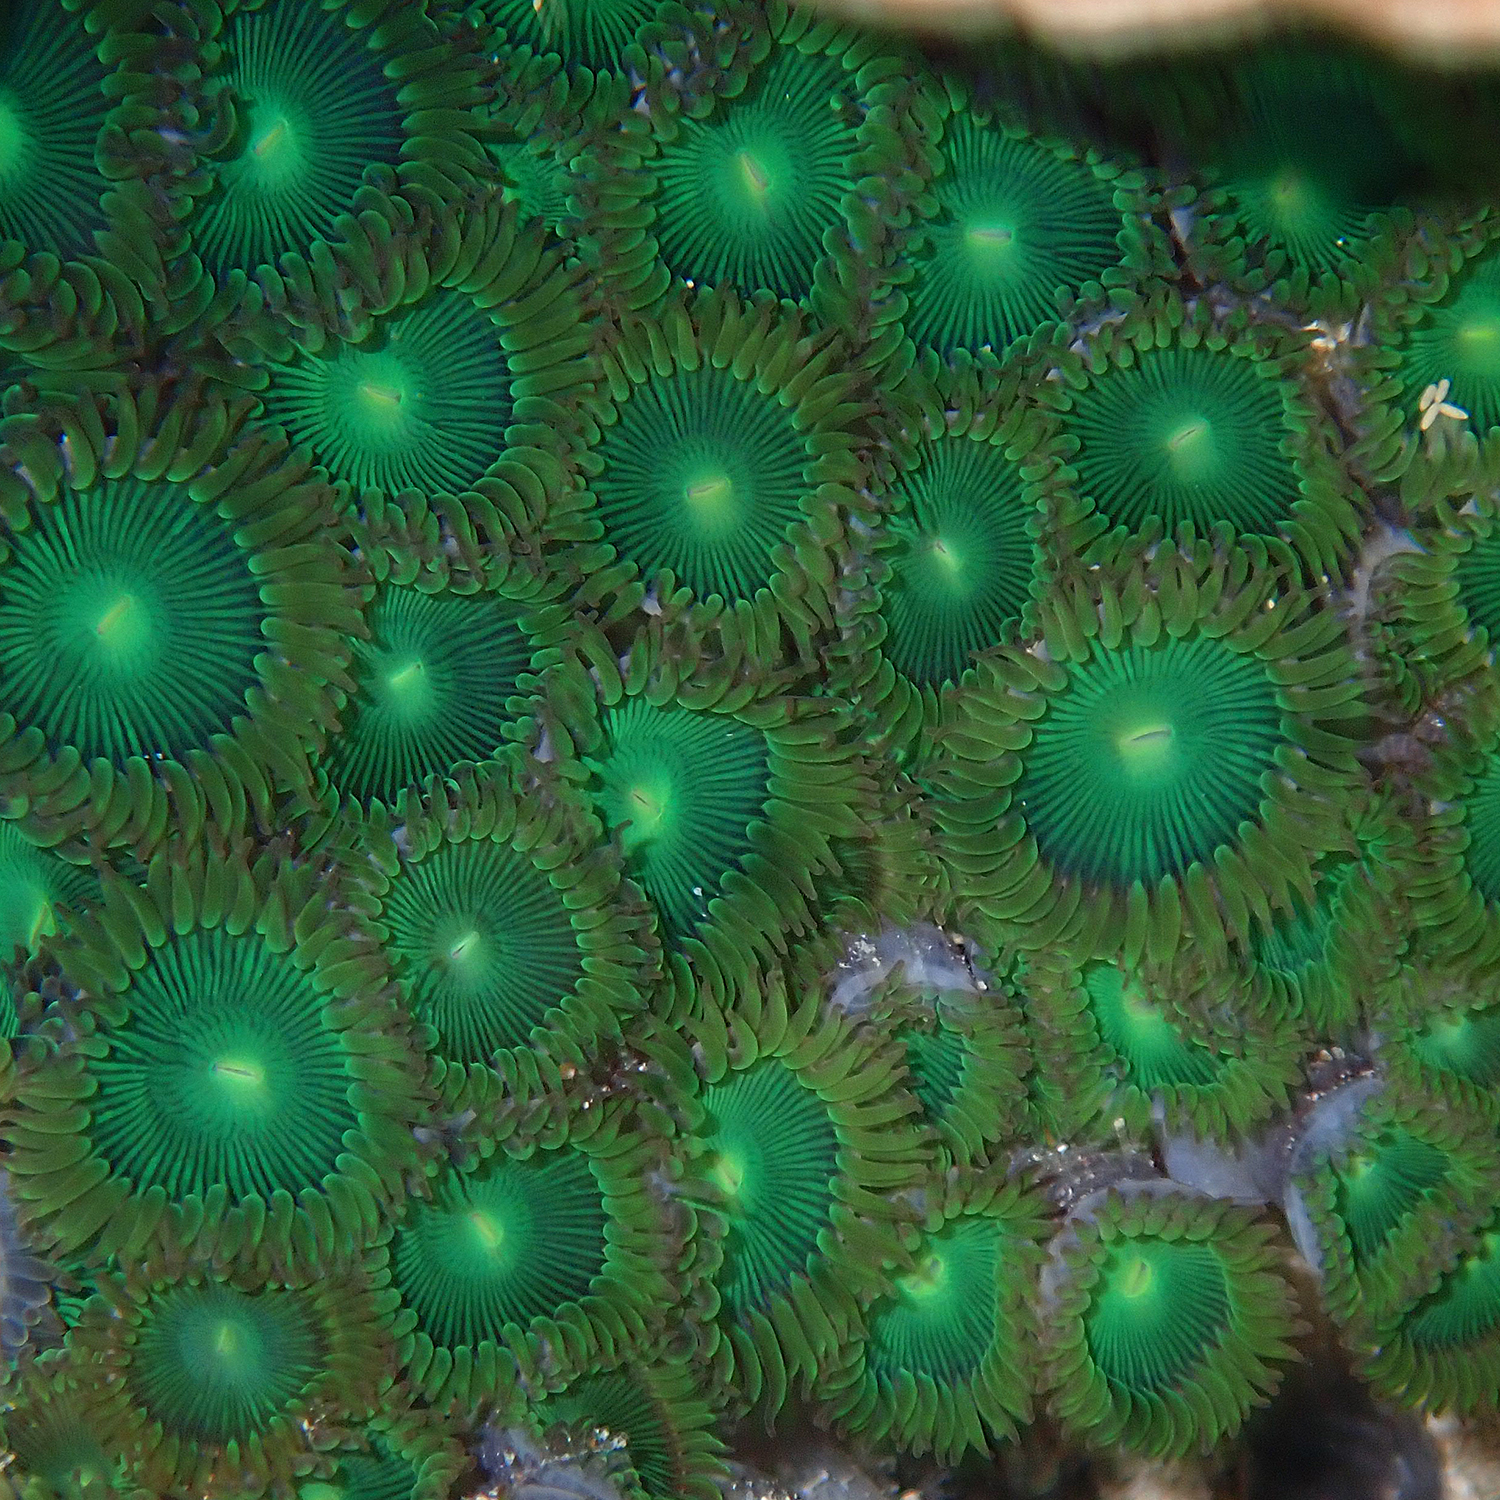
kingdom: Animalia
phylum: Cnidaria
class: Anthozoa
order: Zoantharia
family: Zoanthidae
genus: Zoanthus
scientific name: Zoanthus gigantus
